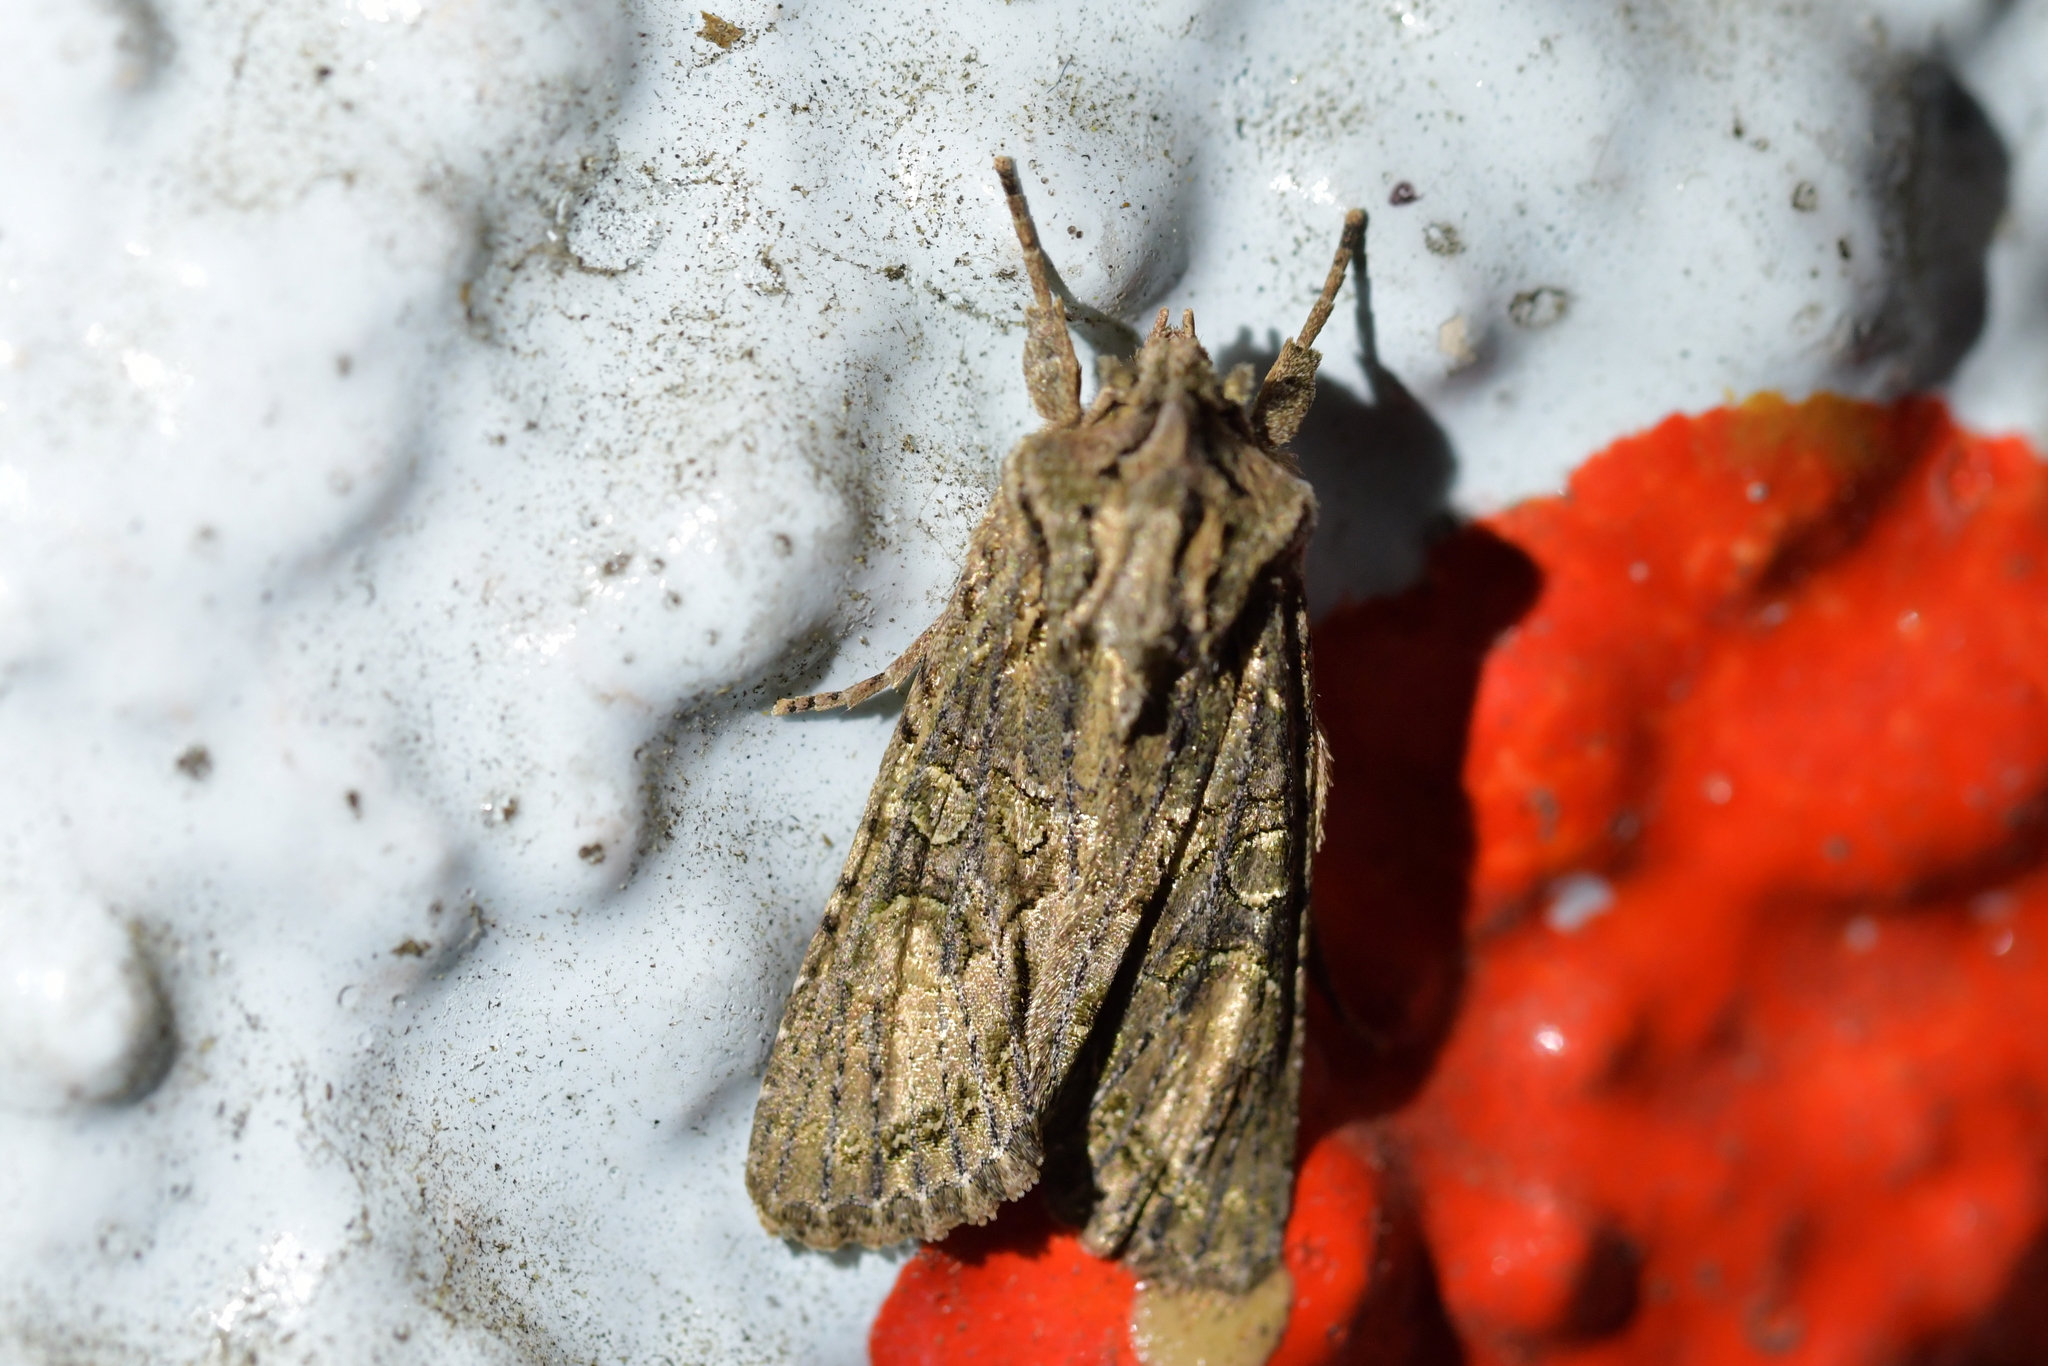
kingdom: Animalia
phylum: Arthropoda
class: Insecta
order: Lepidoptera
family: Noctuidae
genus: Ichneutica
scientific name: Ichneutica mutans
